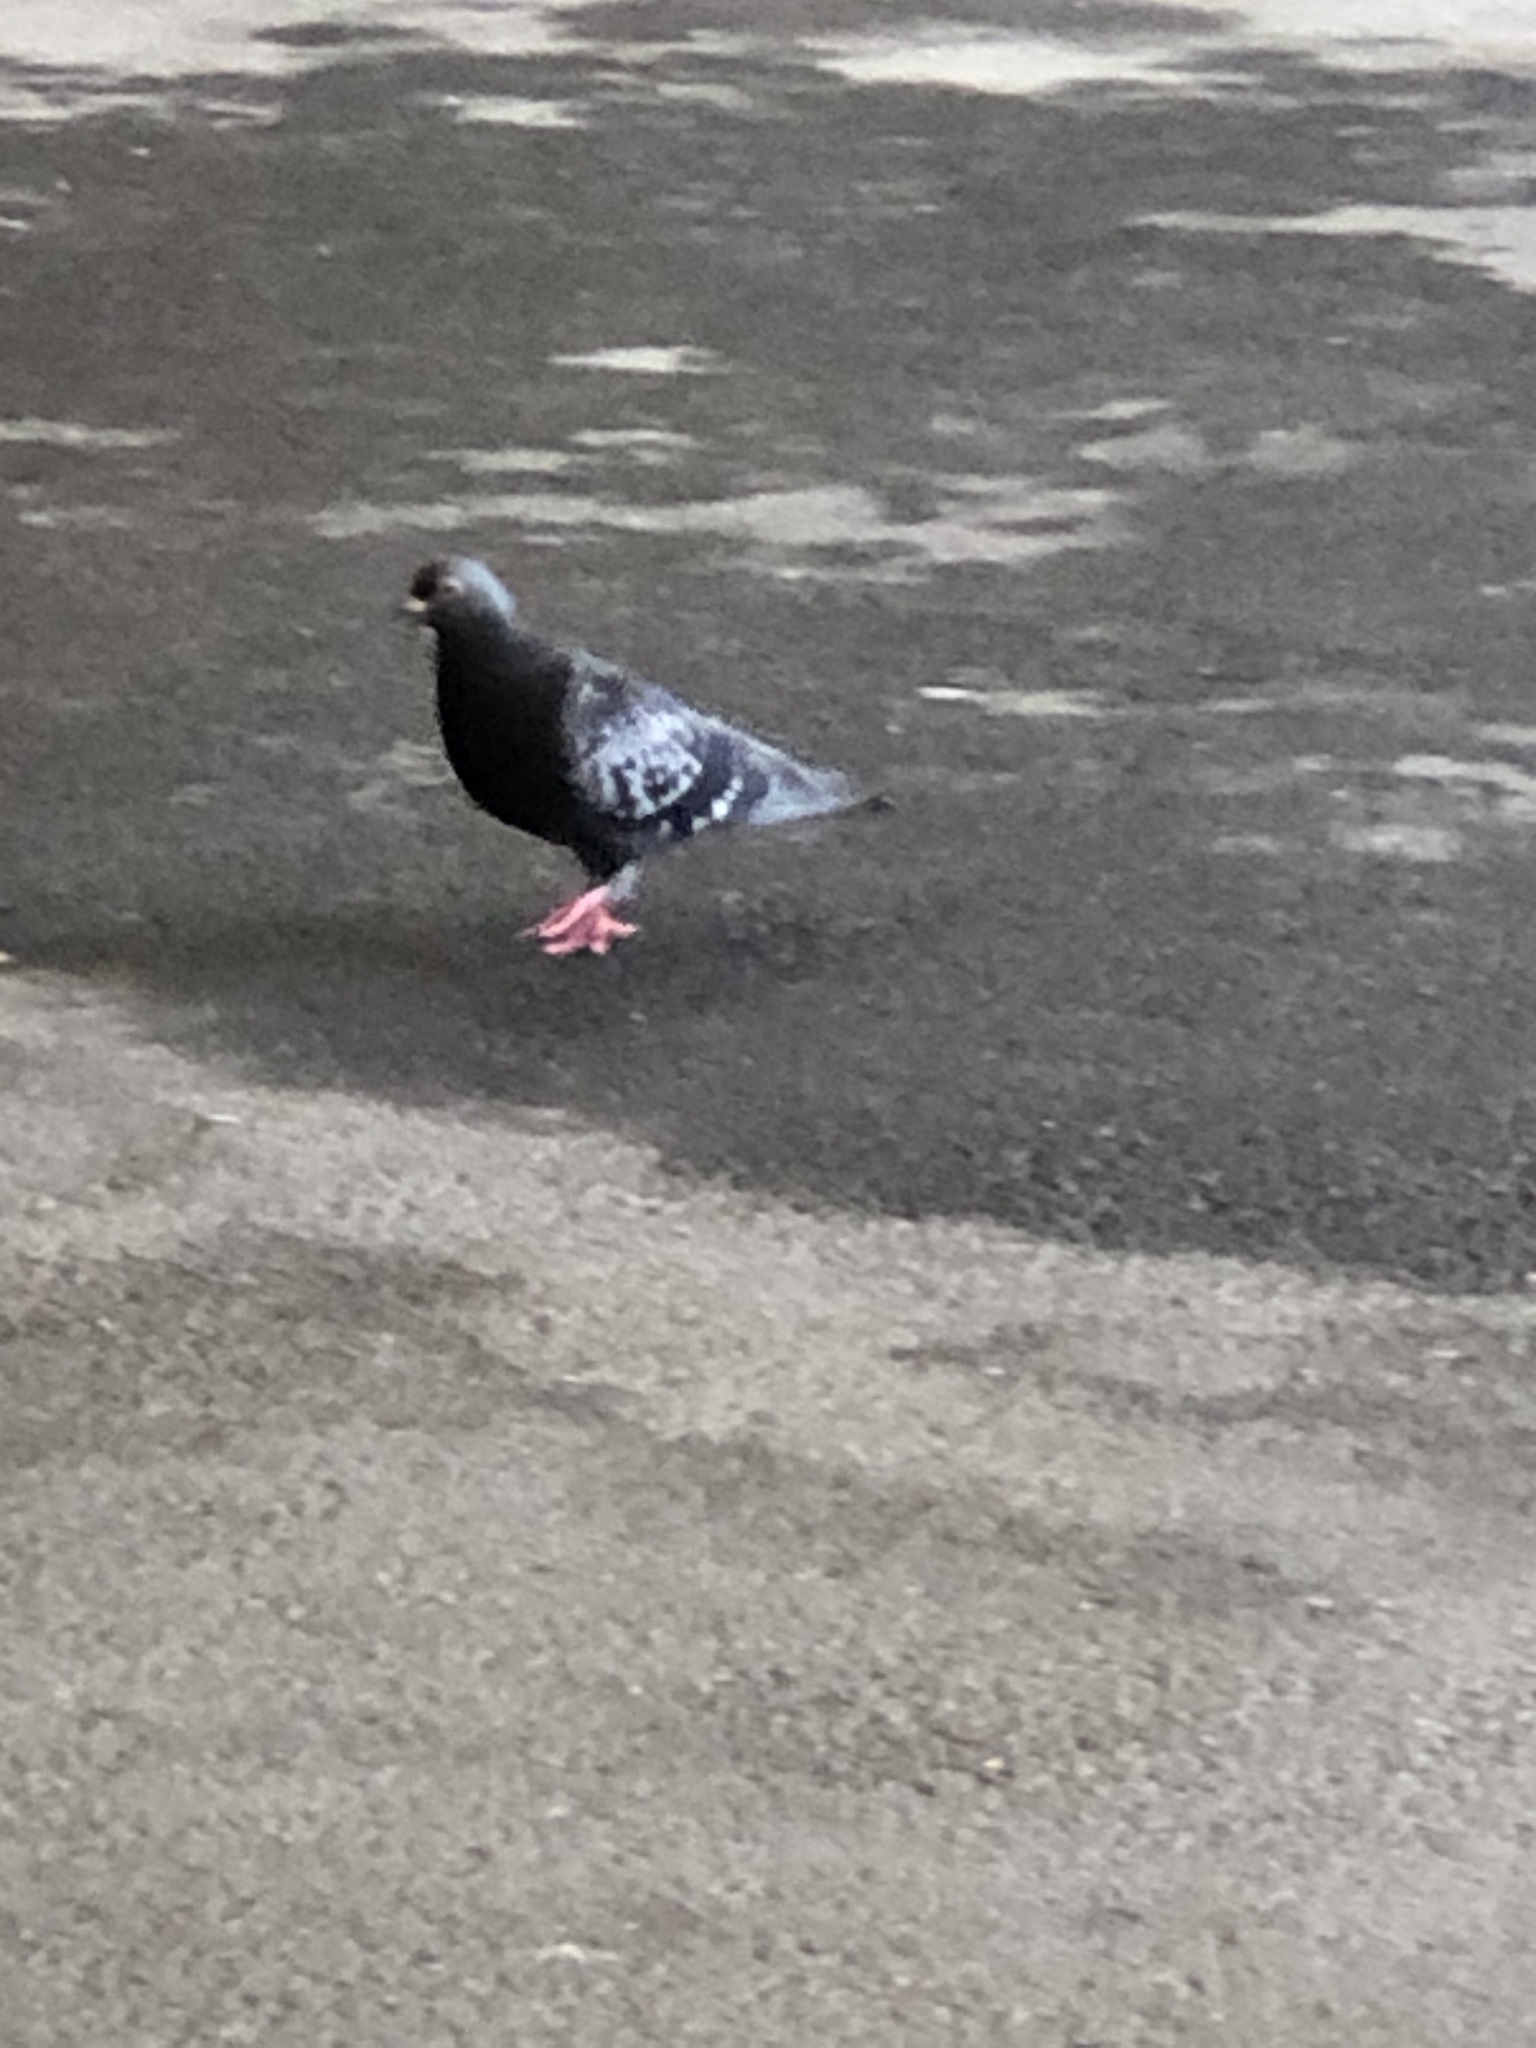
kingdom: Animalia
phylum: Chordata
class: Aves
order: Columbiformes
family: Columbidae
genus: Columba
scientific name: Columba livia
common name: Rock pigeon
